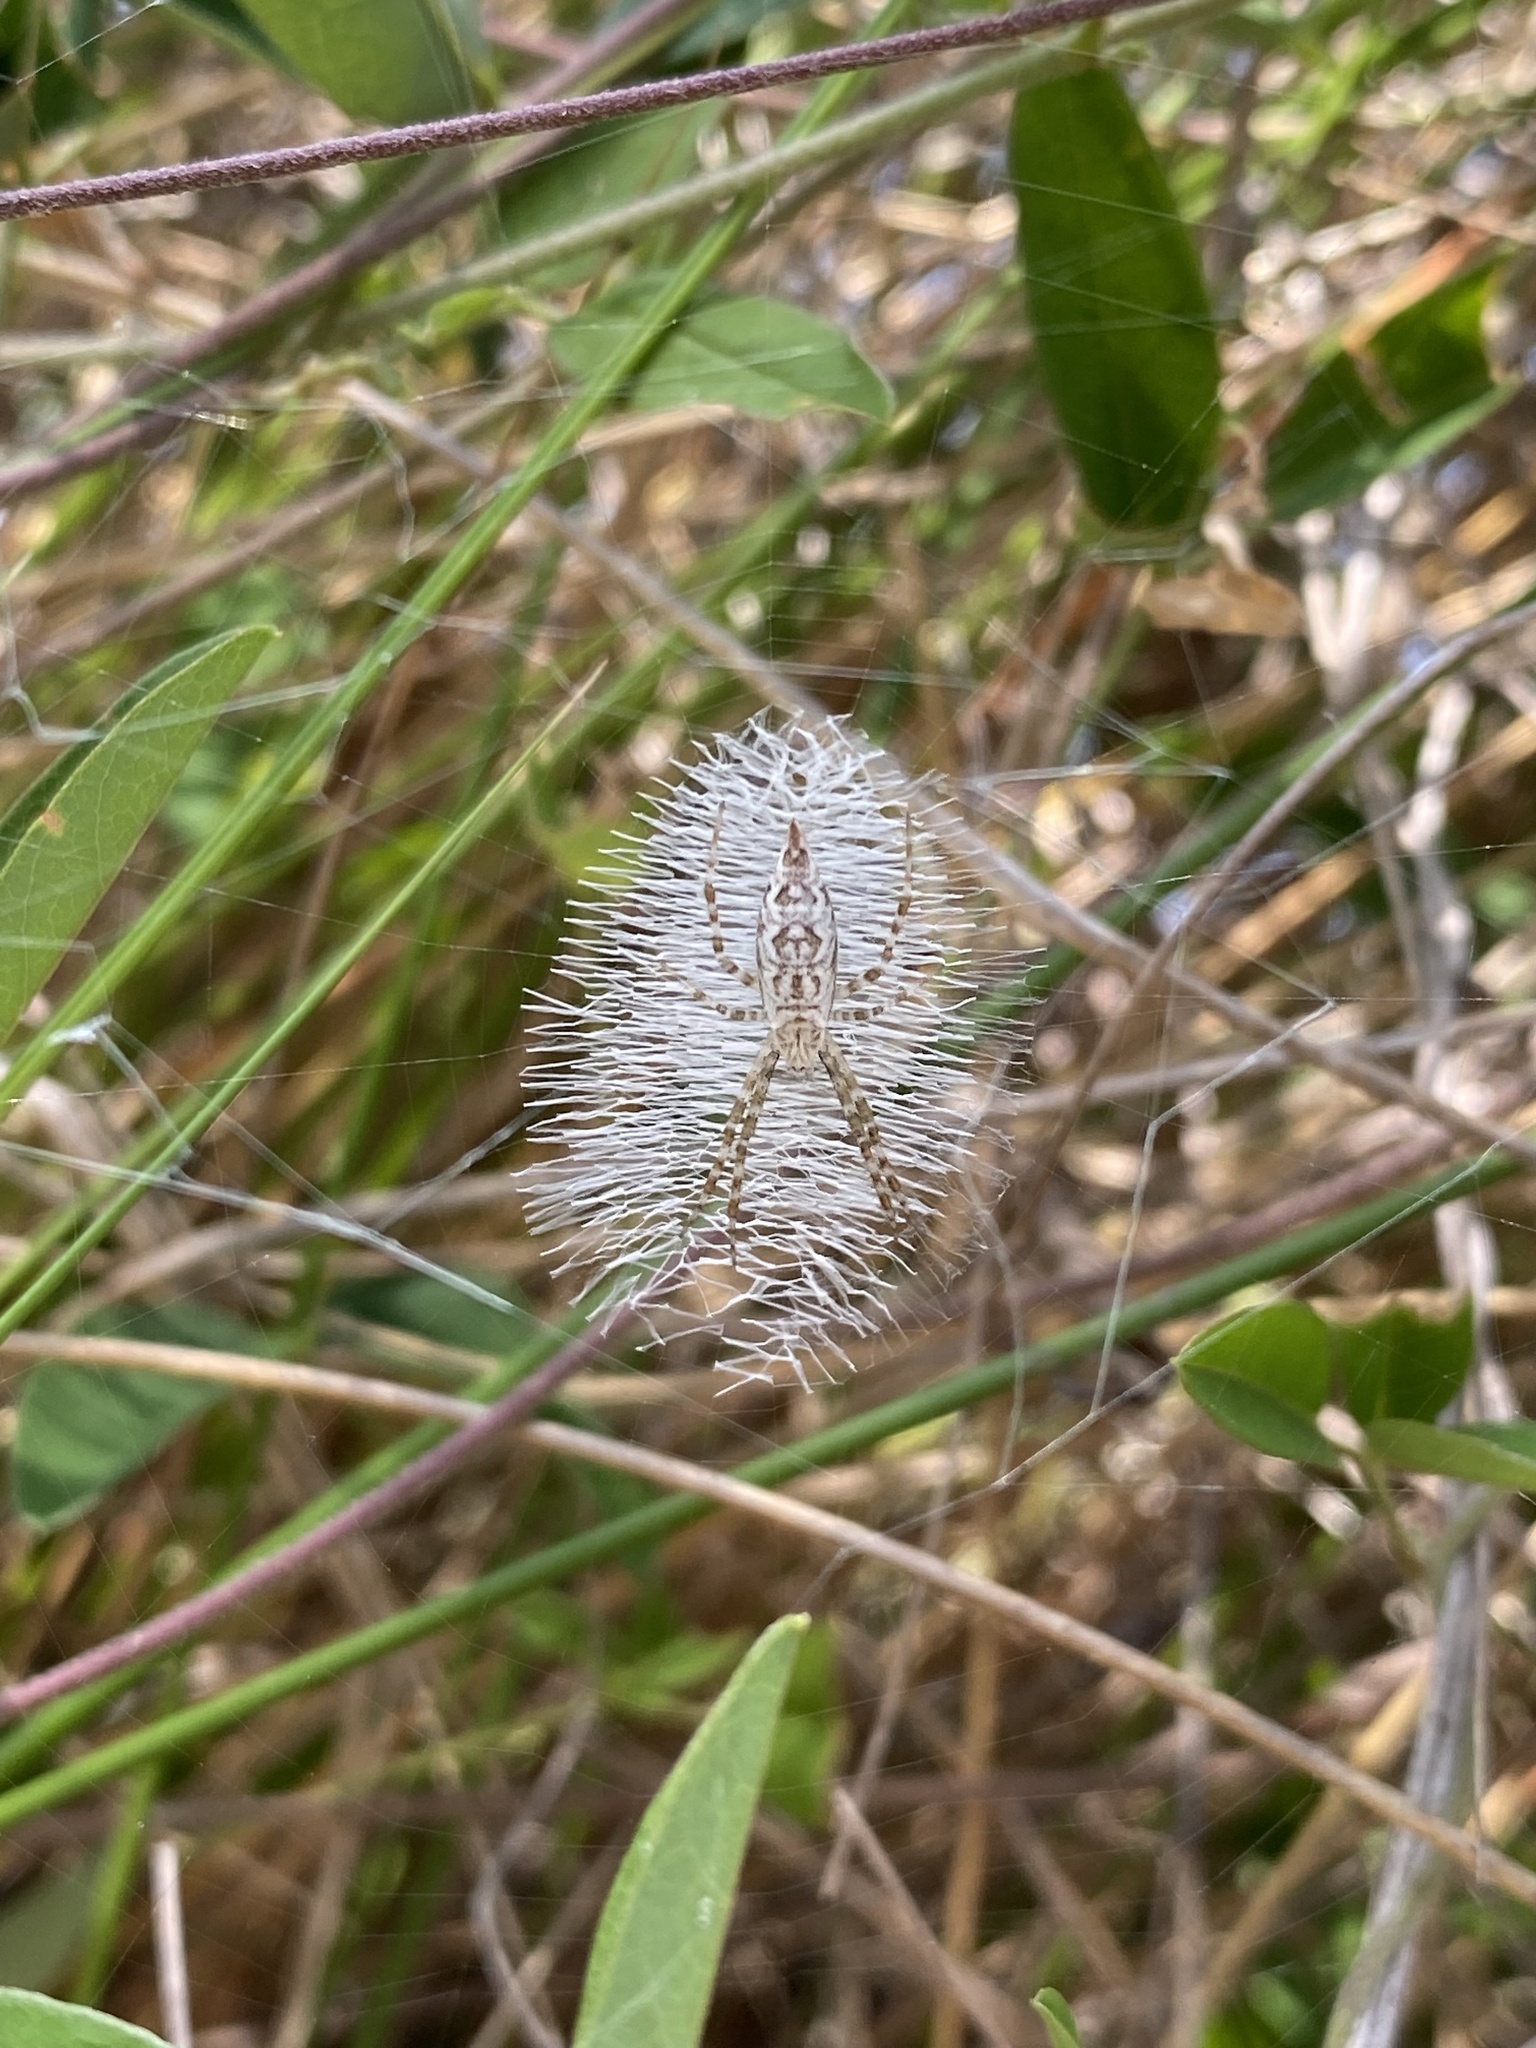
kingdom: Animalia
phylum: Arthropoda
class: Arachnida
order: Araneae
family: Araneidae
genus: Argiope
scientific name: Argiope aurantia
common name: Orb weavers
